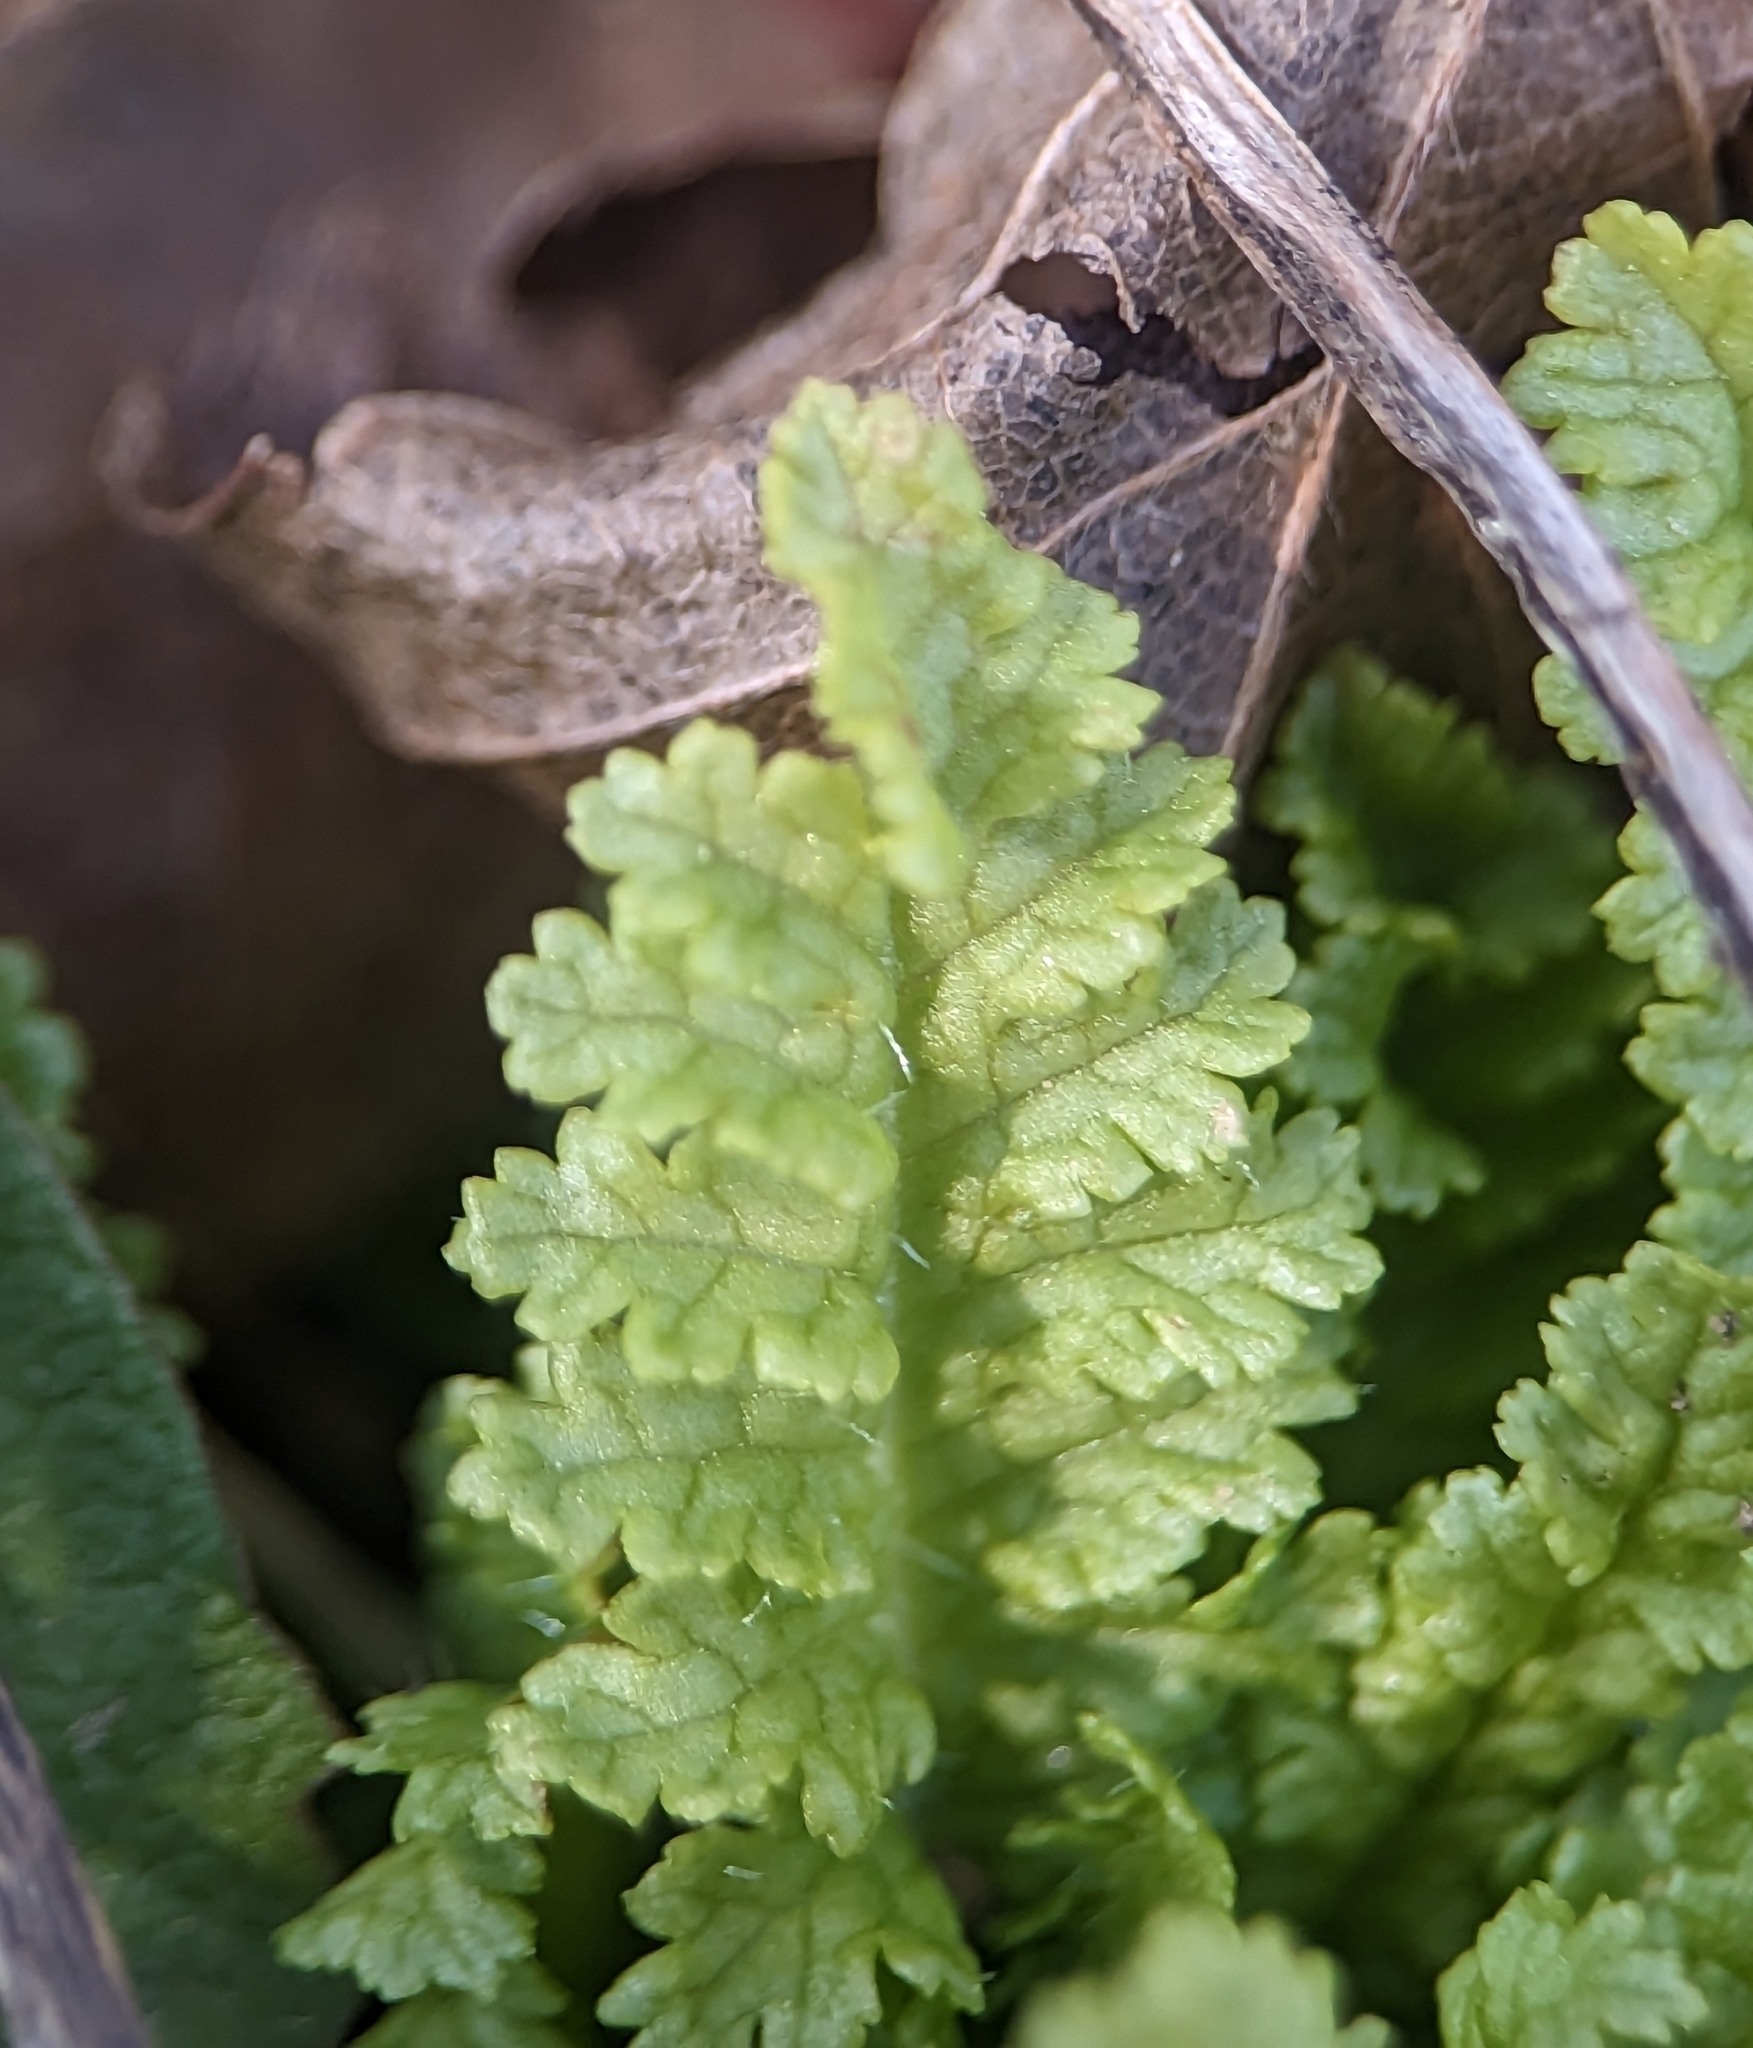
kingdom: Plantae
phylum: Tracheophyta
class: Magnoliopsida
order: Lamiales
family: Orobanchaceae
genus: Pedicularis
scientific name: Pedicularis canadensis
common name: Early lousewort
